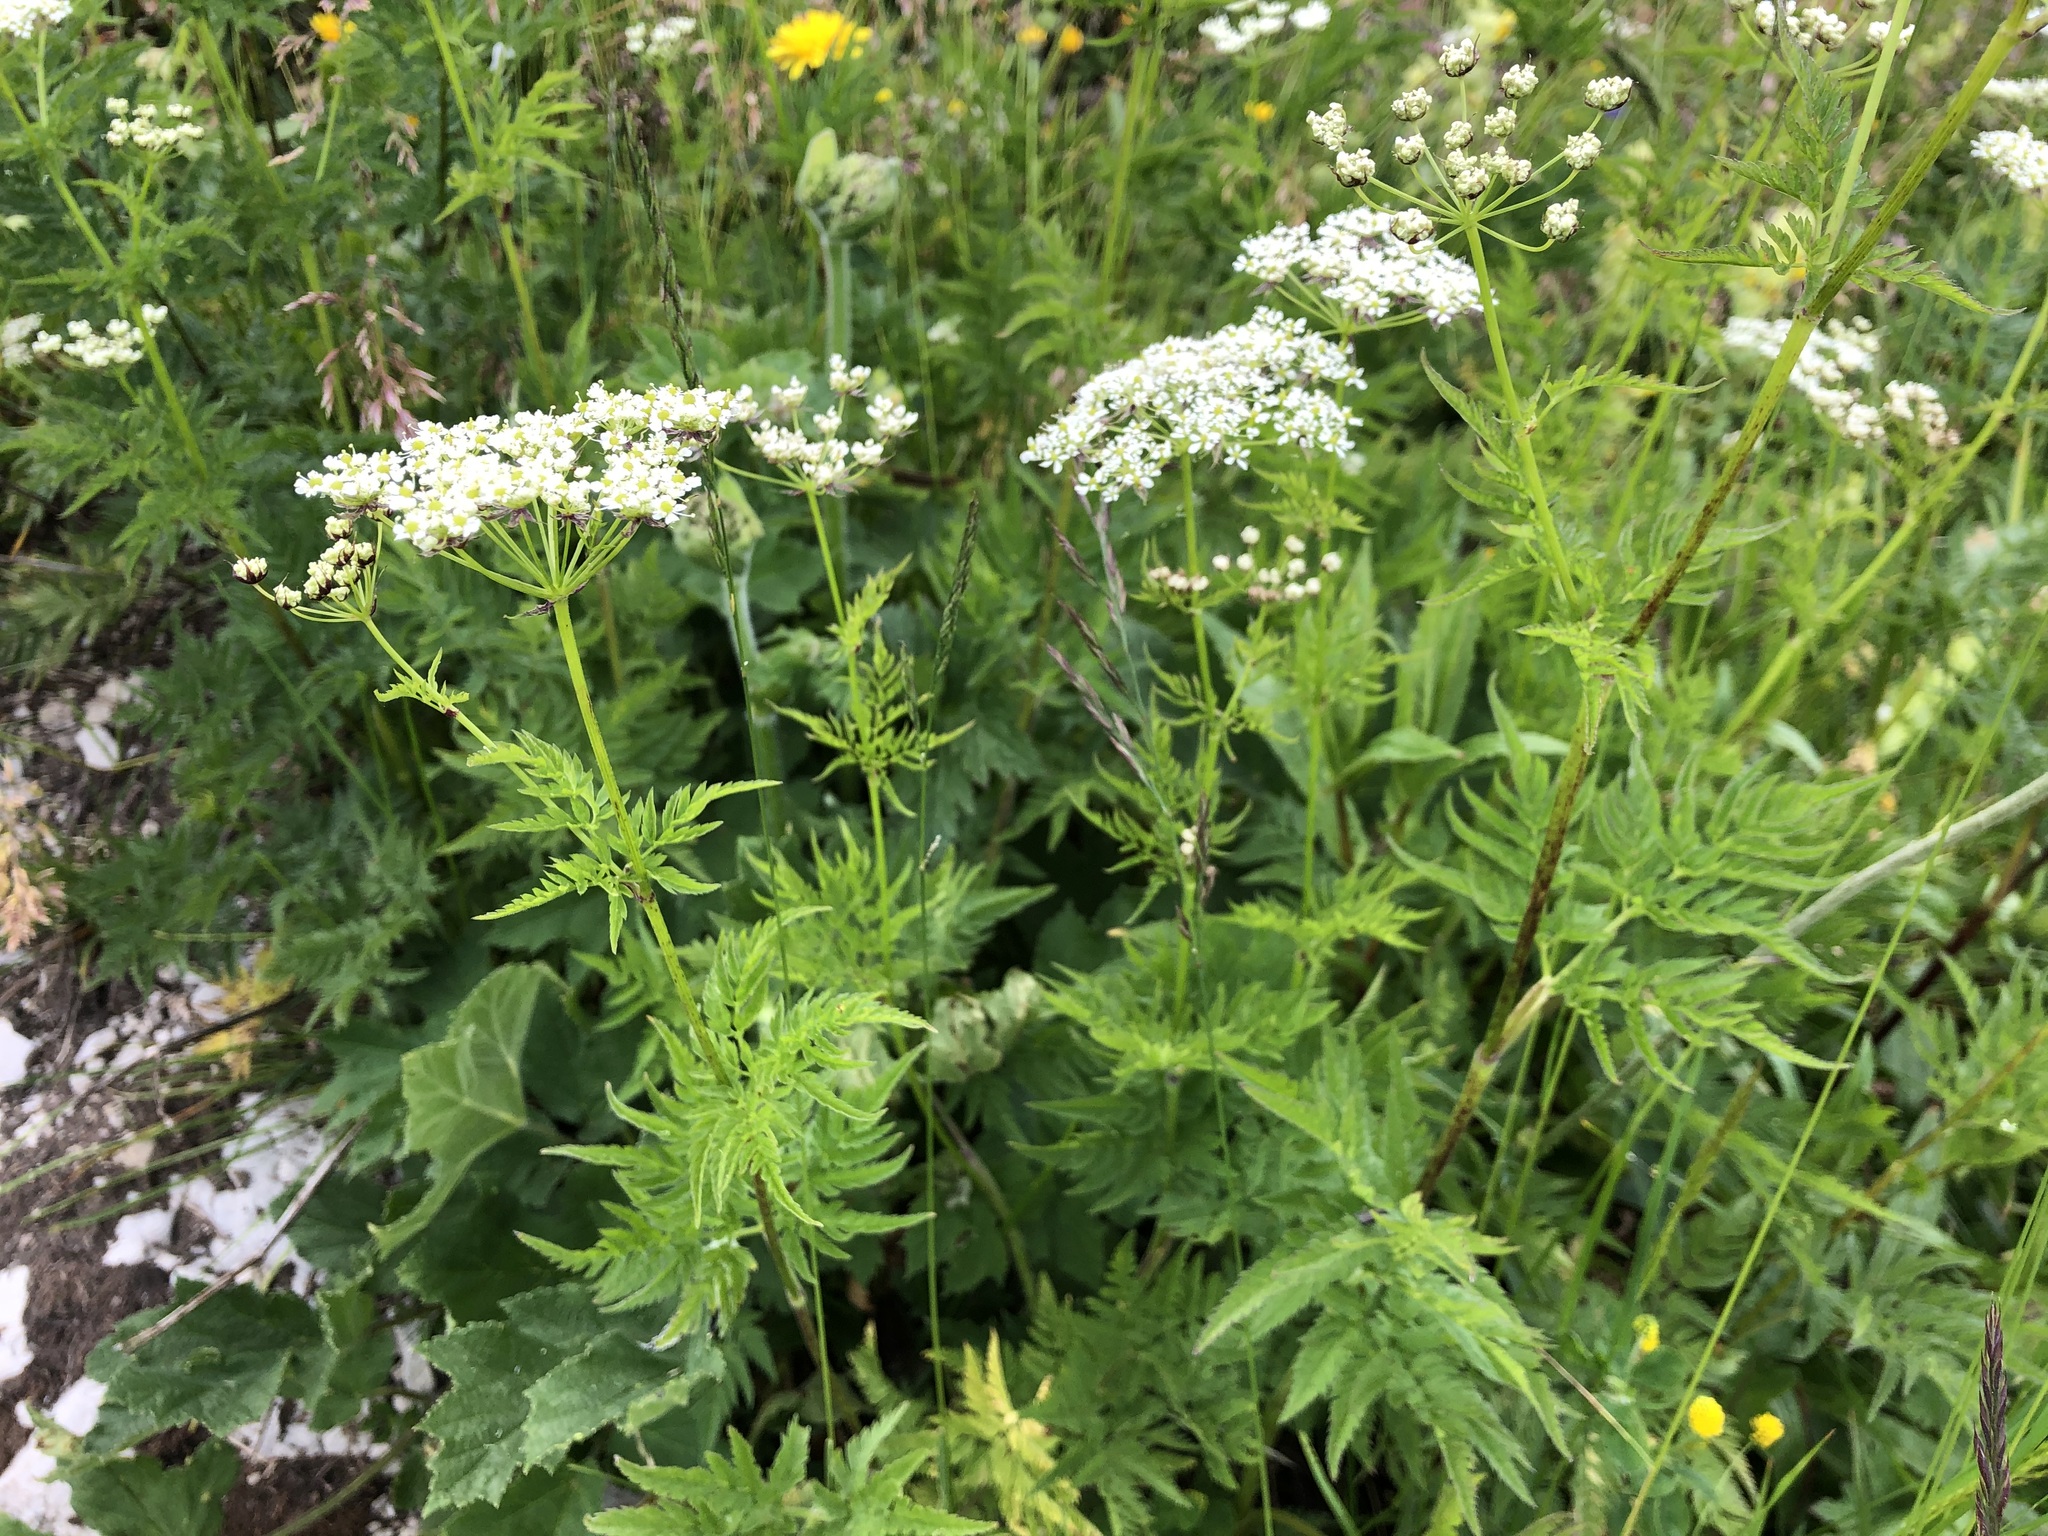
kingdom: Plantae
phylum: Tracheophyta
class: Magnoliopsida
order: Apiales
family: Apiaceae
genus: Chaerophyllum
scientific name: Chaerophyllum aureum
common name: Golden chervil
